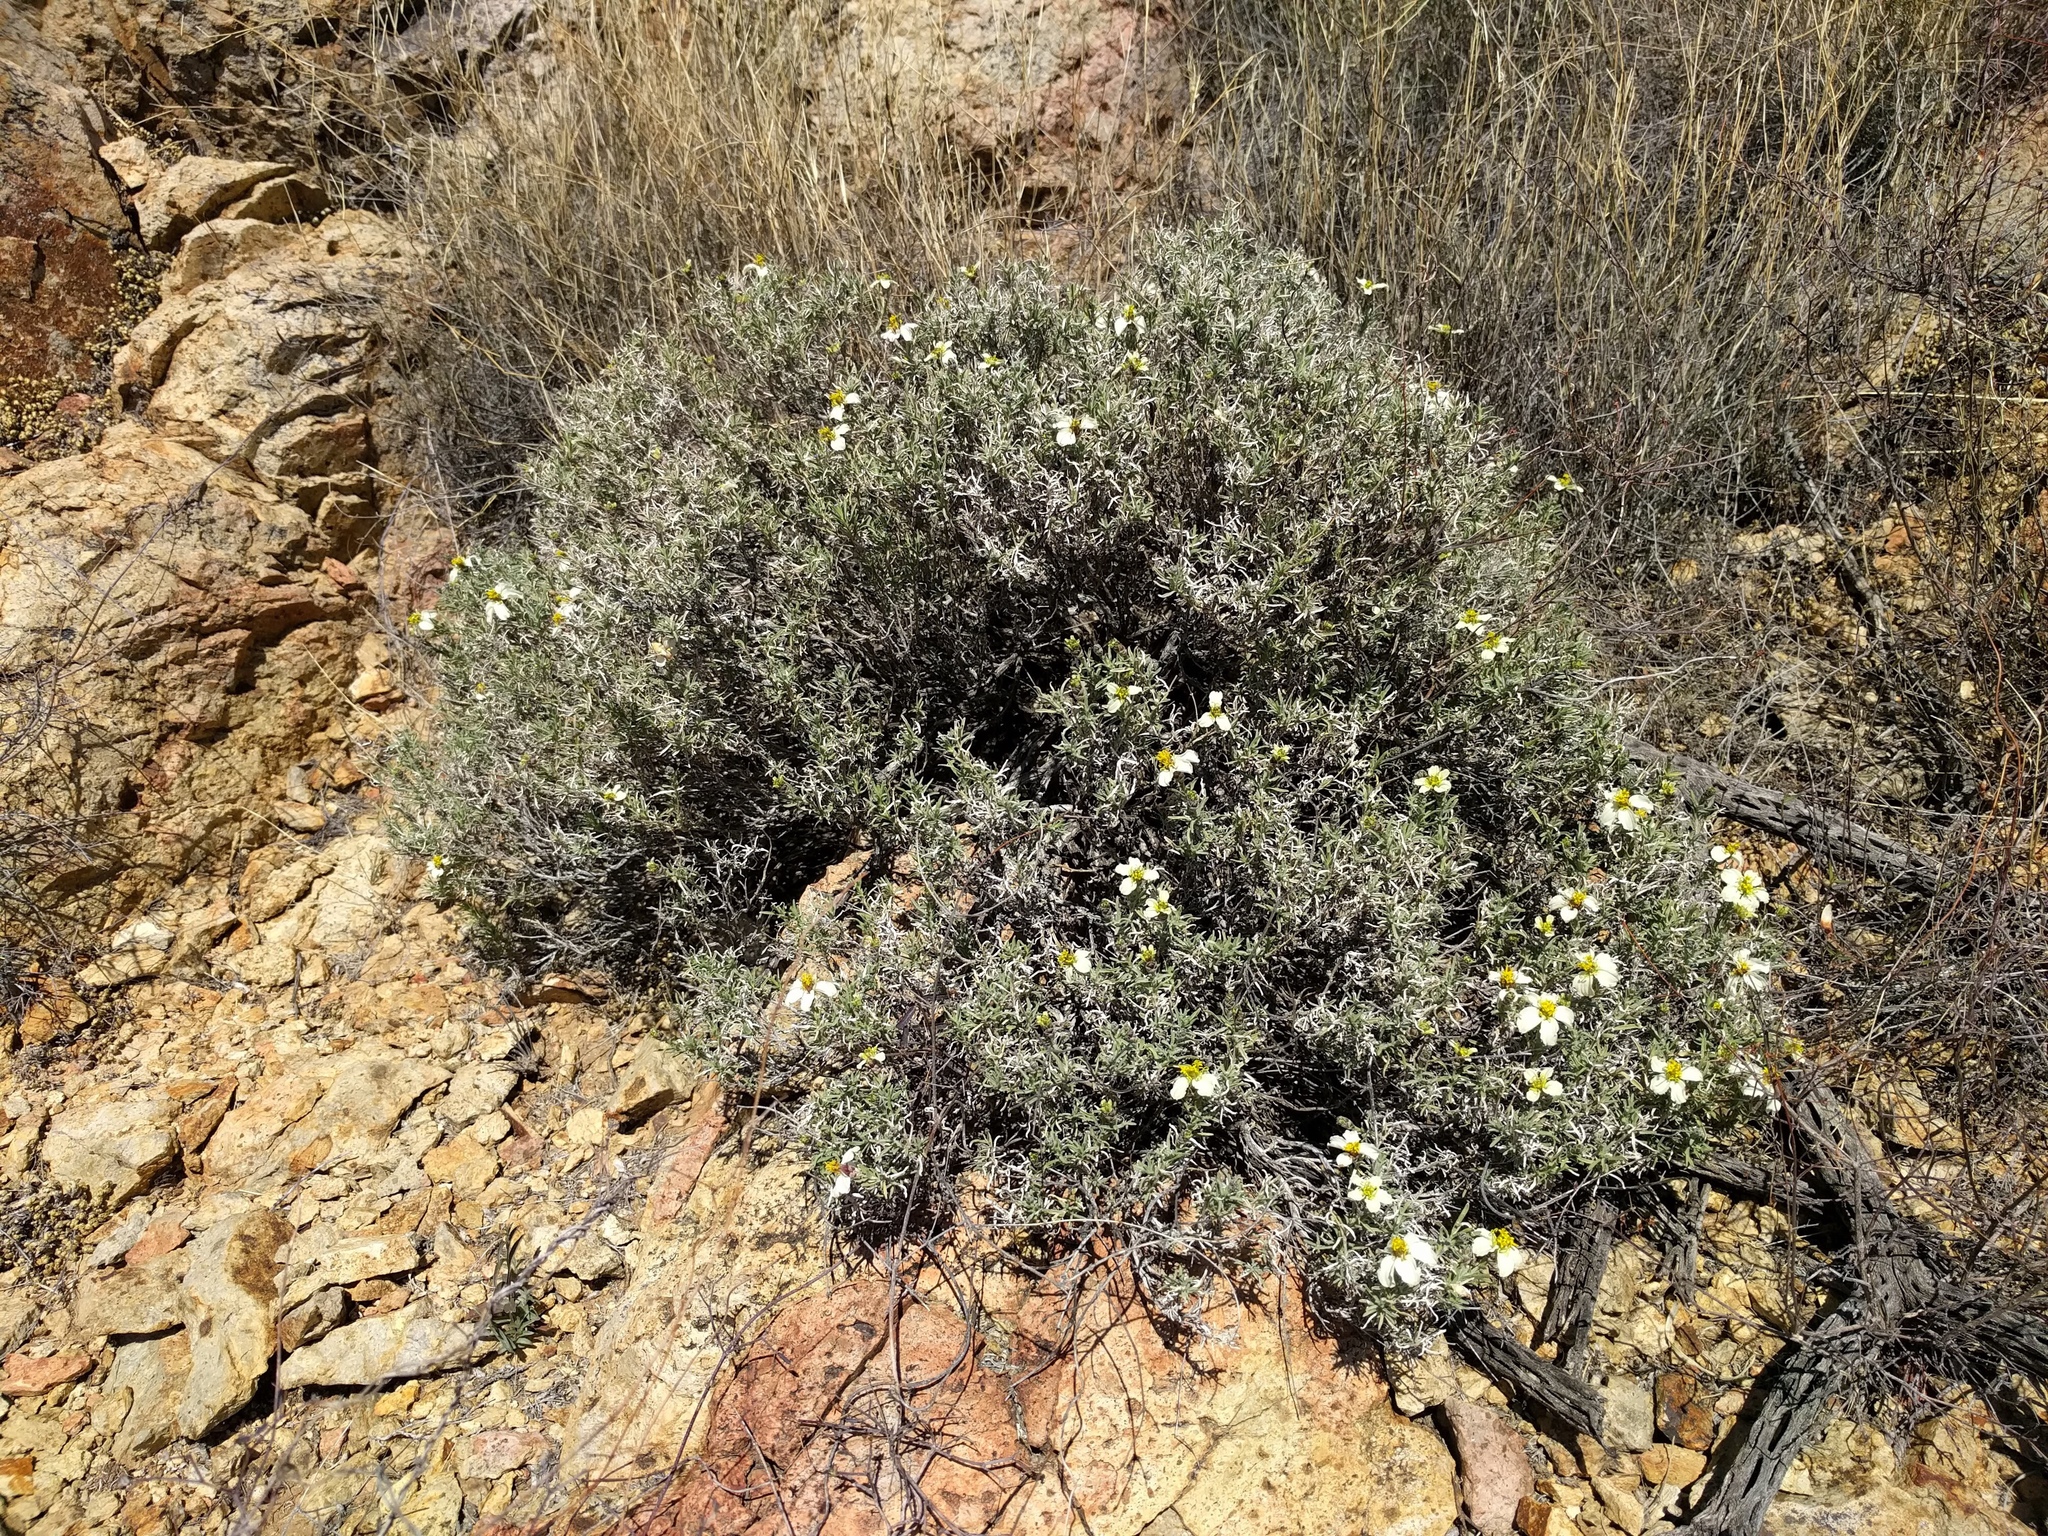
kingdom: Plantae
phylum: Tracheophyta
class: Magnoliopsida
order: Asterales
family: Asteraceae
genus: Zinnia
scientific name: Zinnia acerosa
